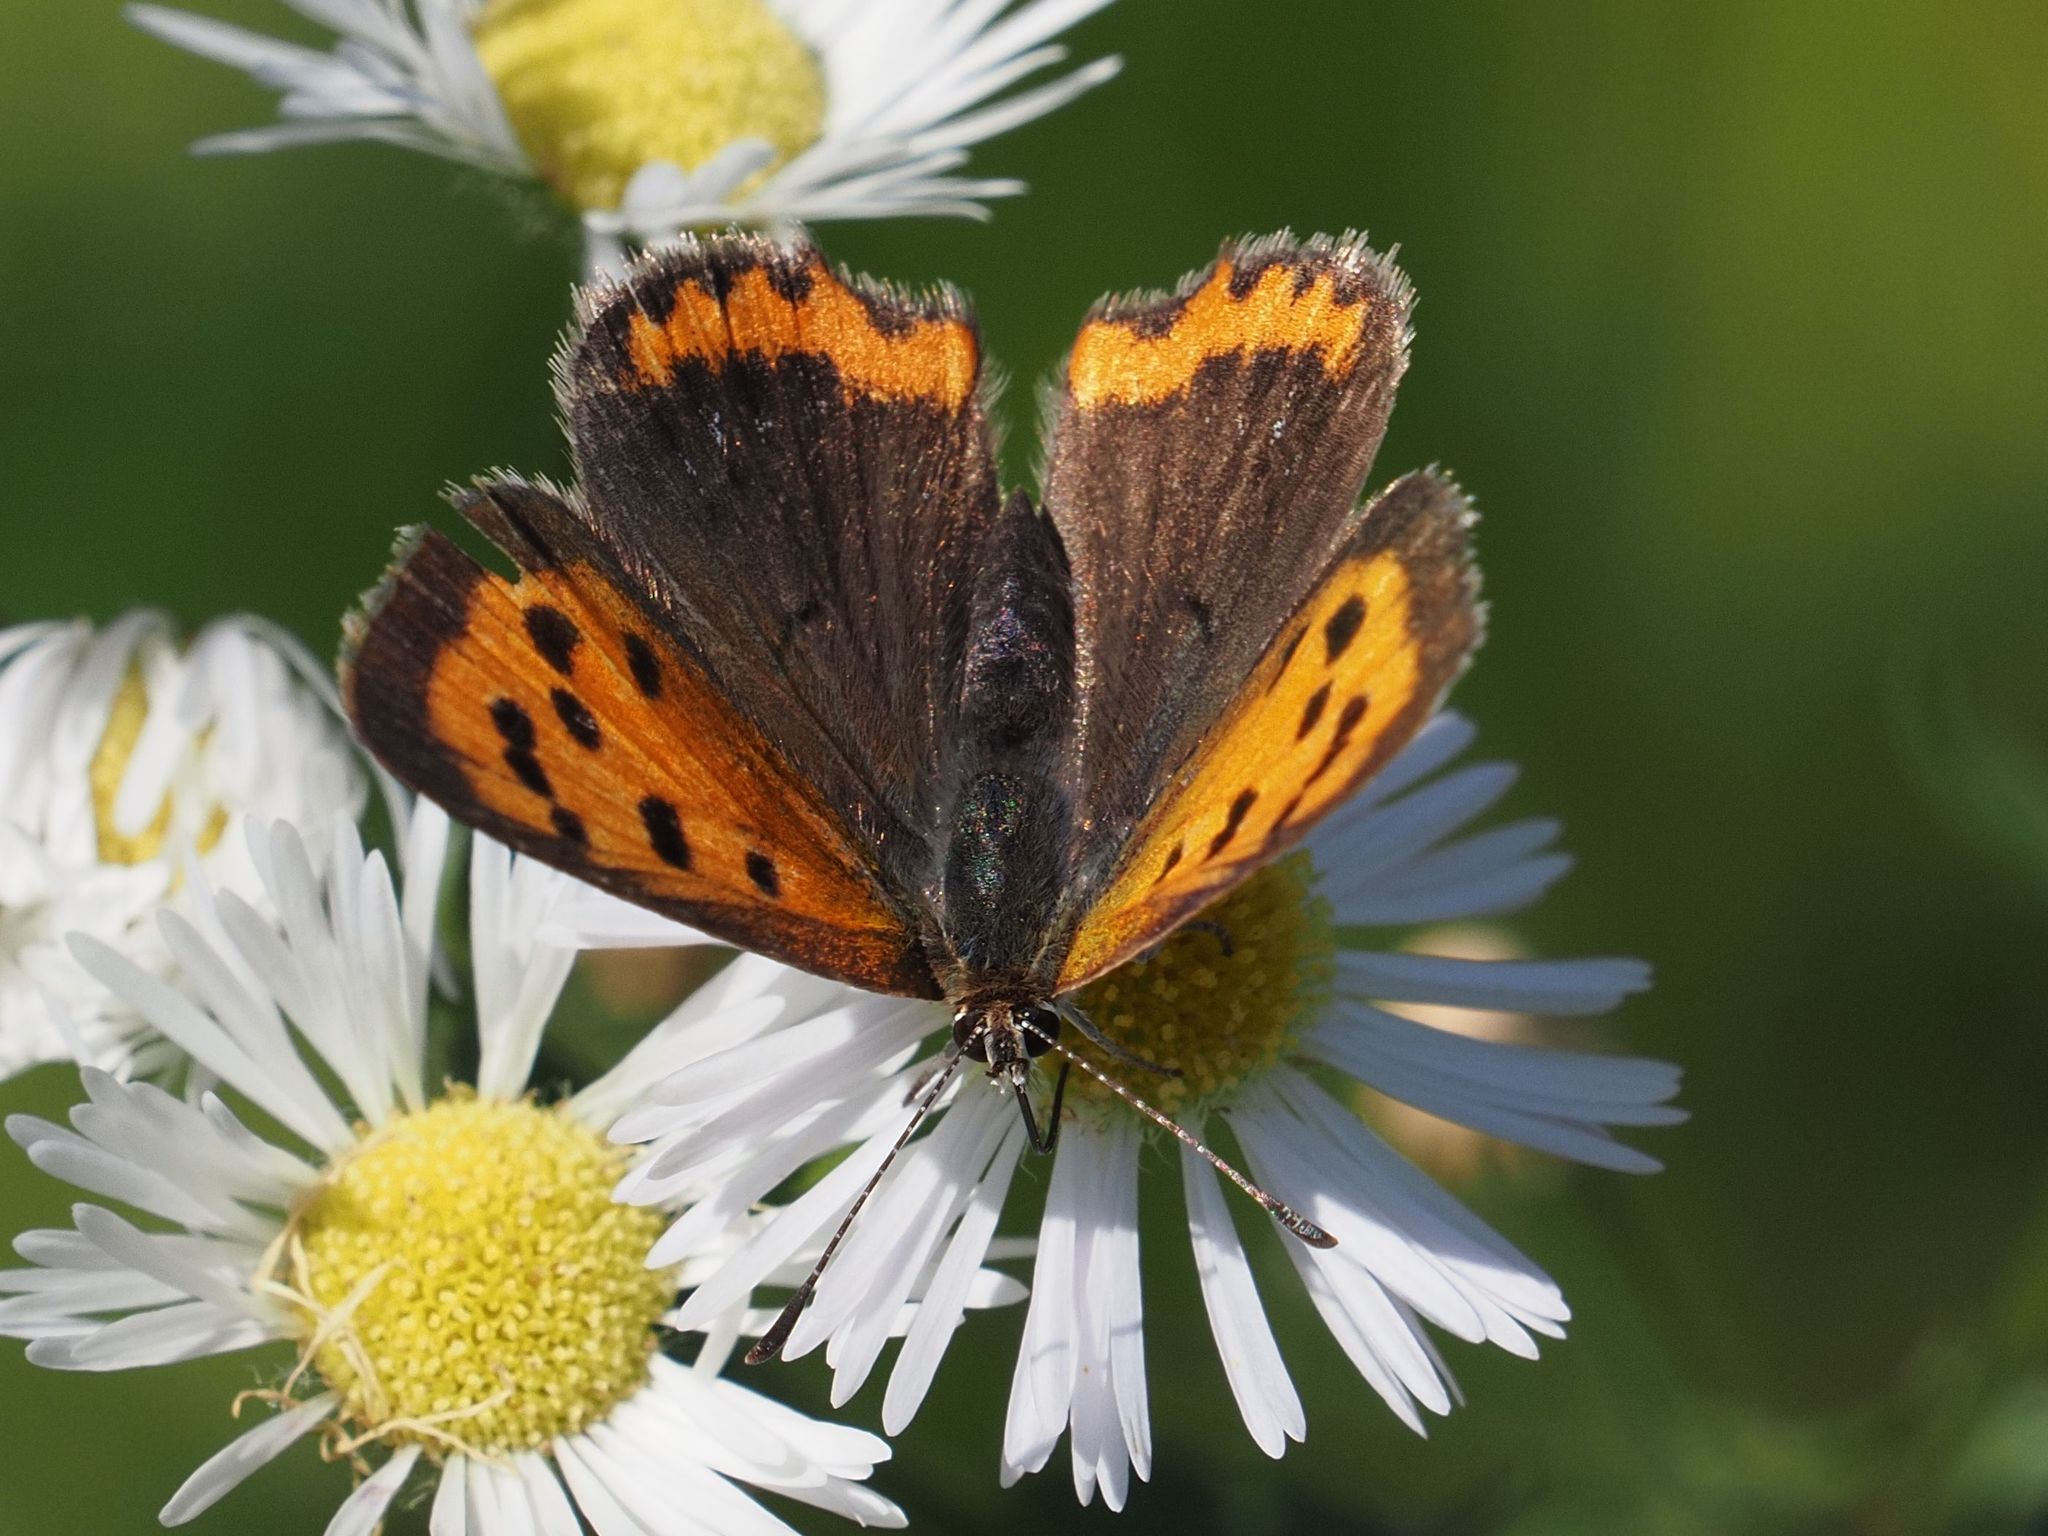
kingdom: Animalia
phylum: Arthropoda
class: Insecta
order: Lepidoptera
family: Lycaenidae
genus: Lycaena
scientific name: Lycaena phlaeas
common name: Small copper
